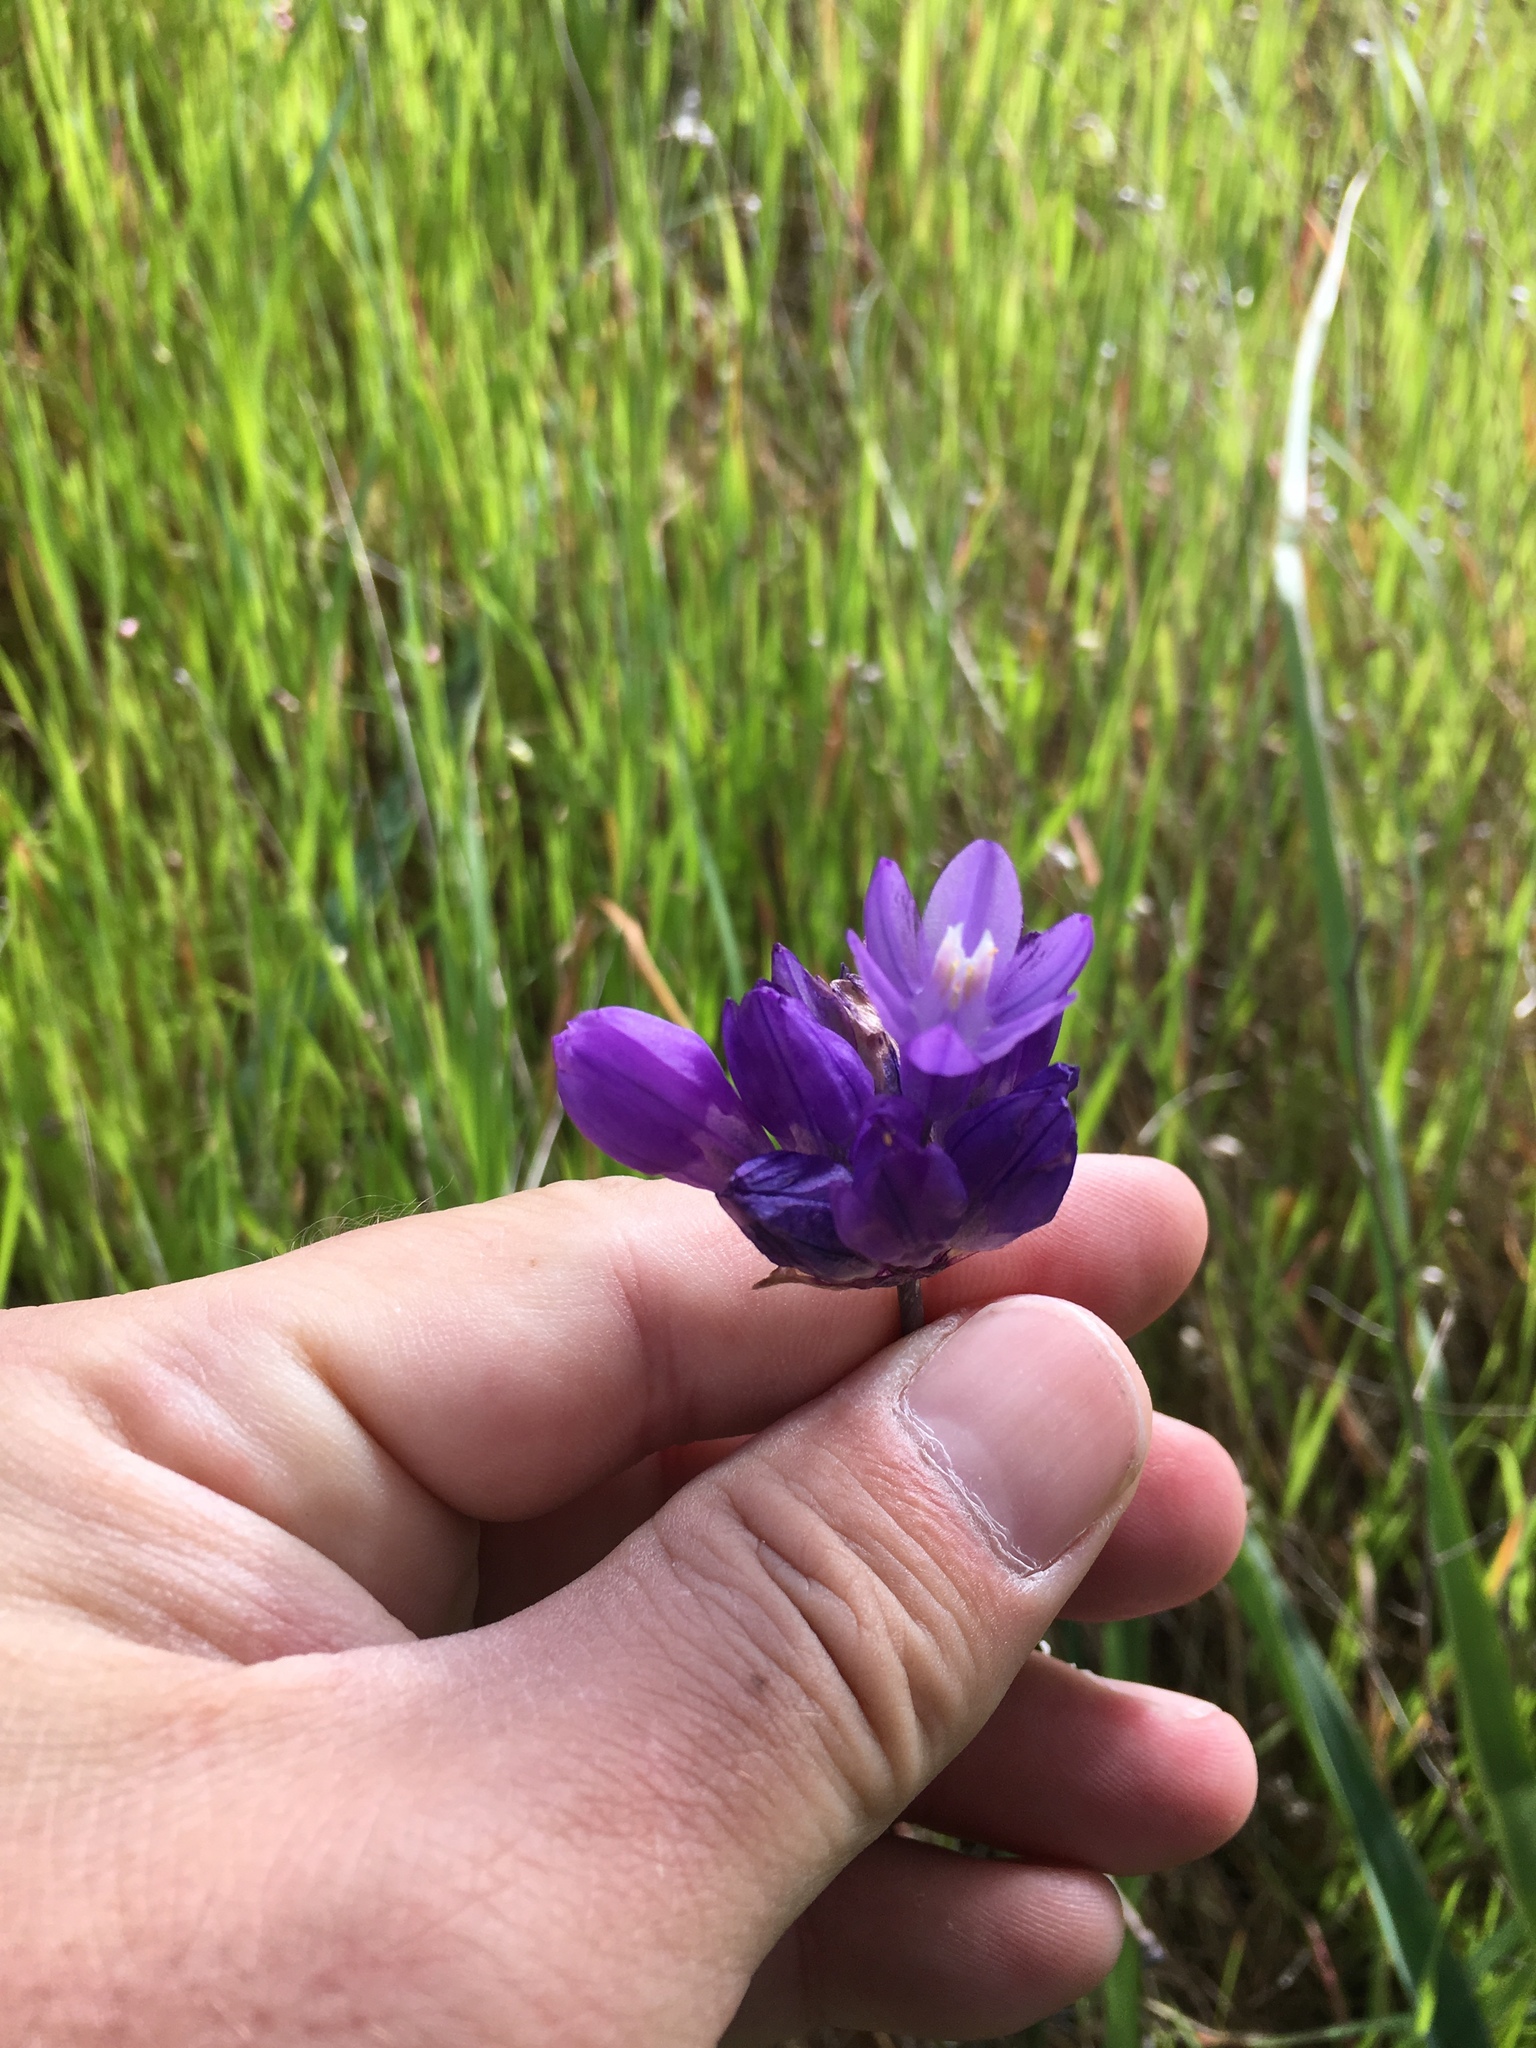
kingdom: Plantae
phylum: Tracheophyta
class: Liliopsida
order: Asparagales
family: Asparagaceae
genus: Dipterostemon
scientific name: Dipterostemon capitatus
